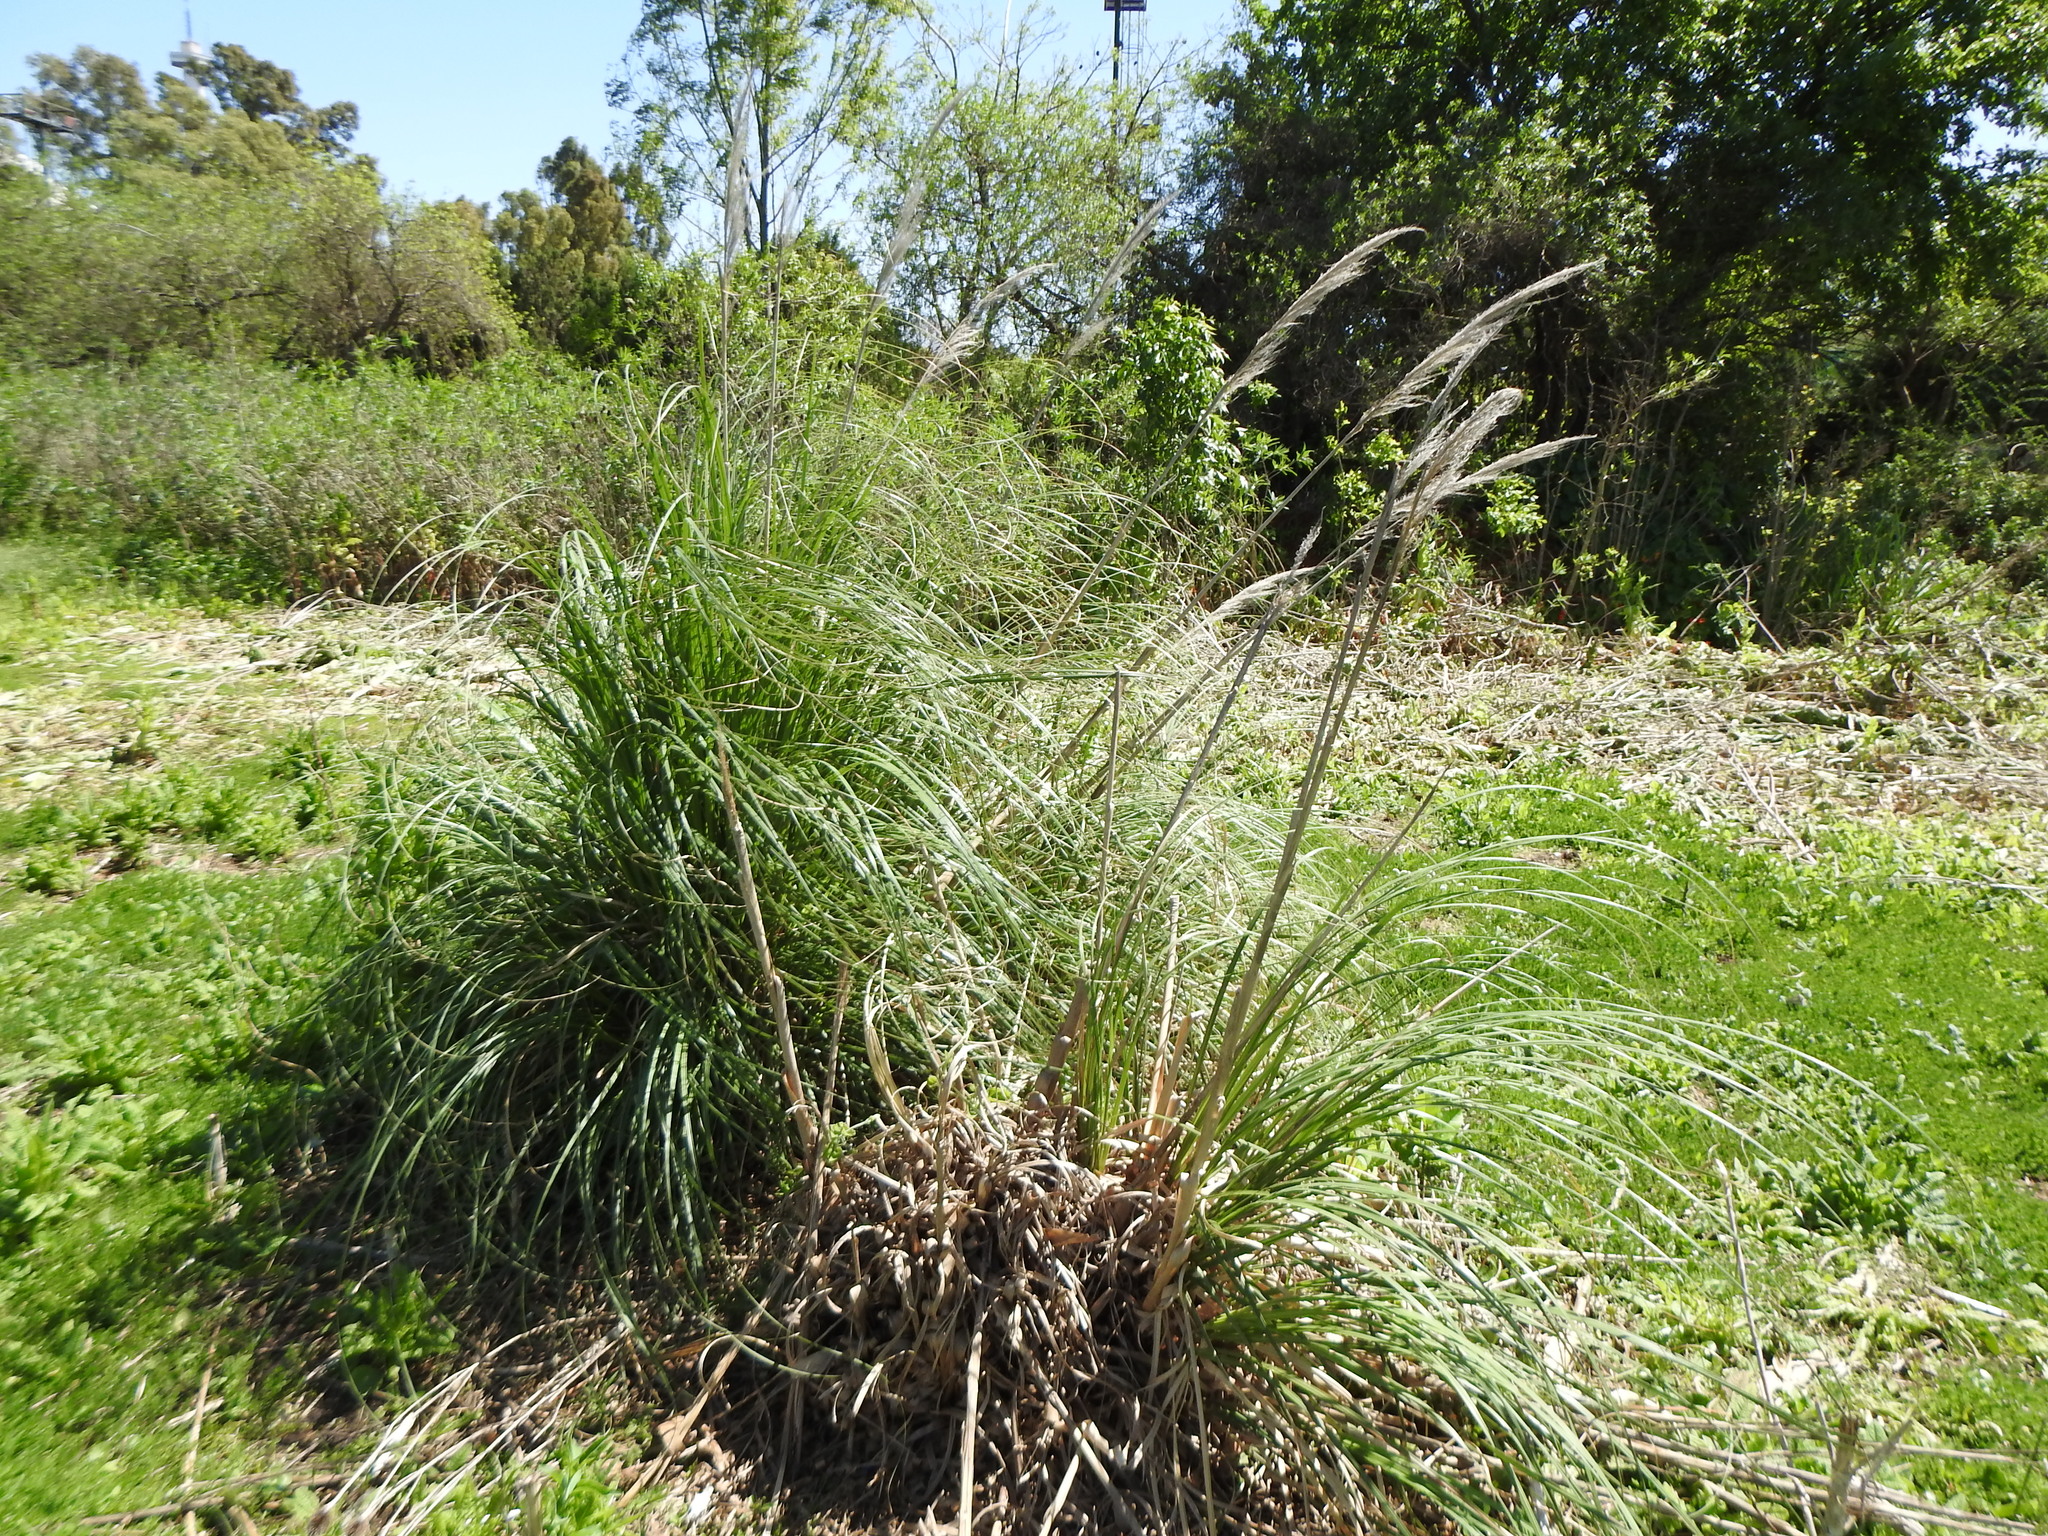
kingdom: Plantae
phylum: Tracheophyta
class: Liliopsida
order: Poales
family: Poaceae
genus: Cortaderia
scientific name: Cortaderia selloana
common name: Uruguayan pampas grass
